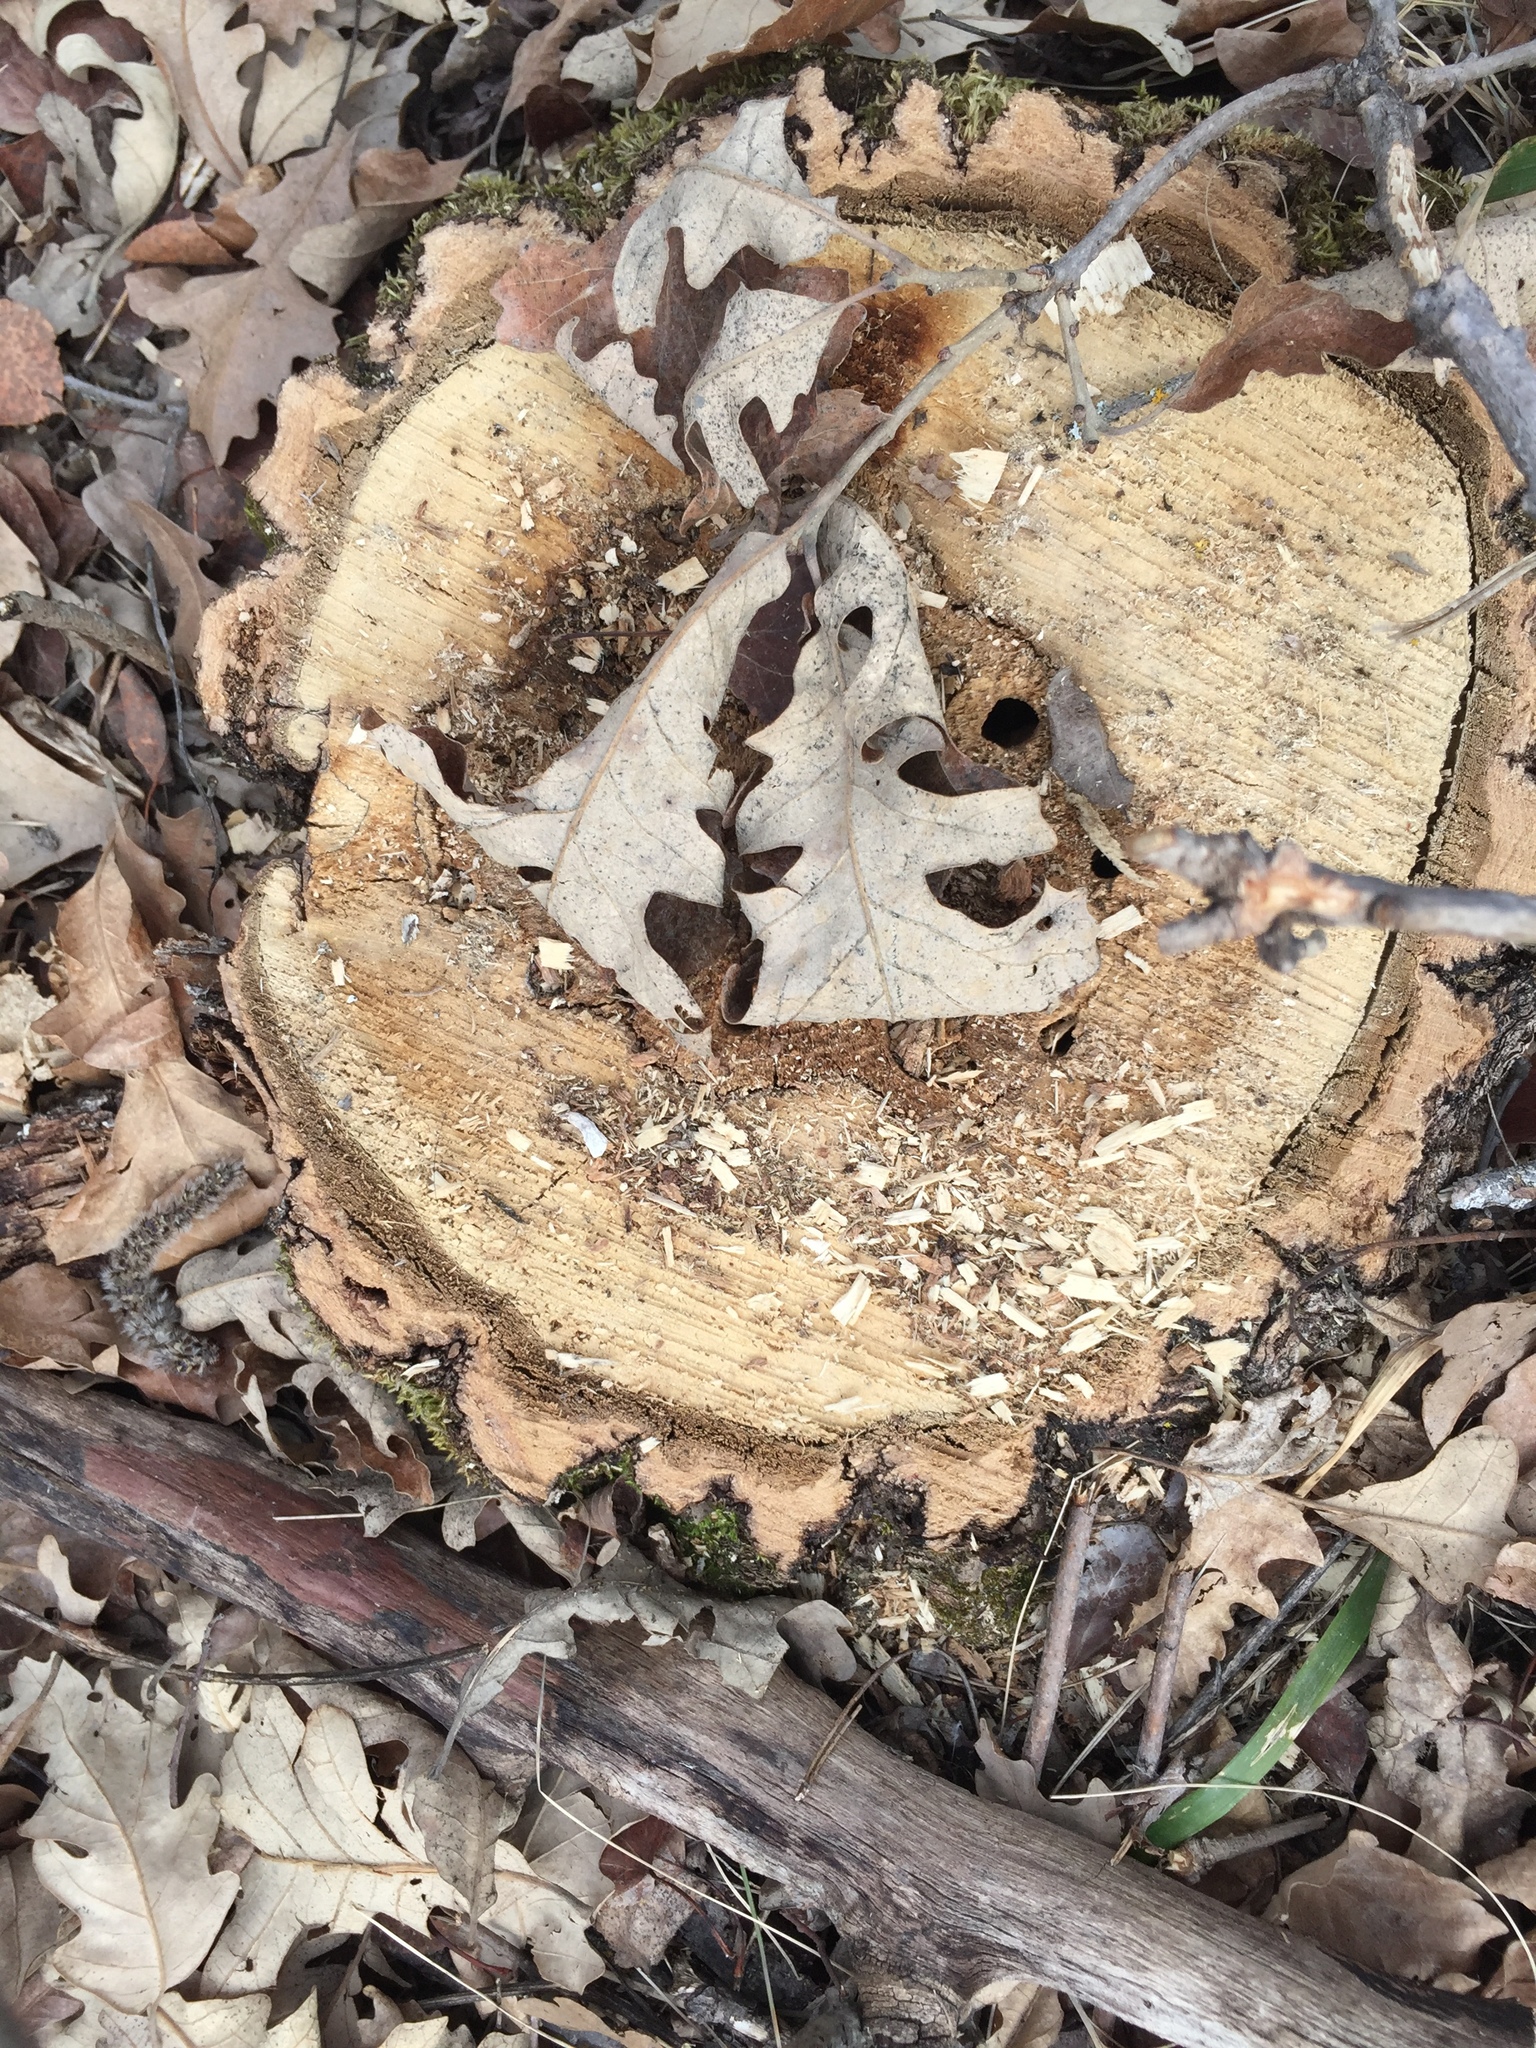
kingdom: Plantae
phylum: Tracheophyta
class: Magnoliopsida
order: Fagales
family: Fagaceae
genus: Quercus
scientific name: Quercus macrocarpa
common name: Bur oak
